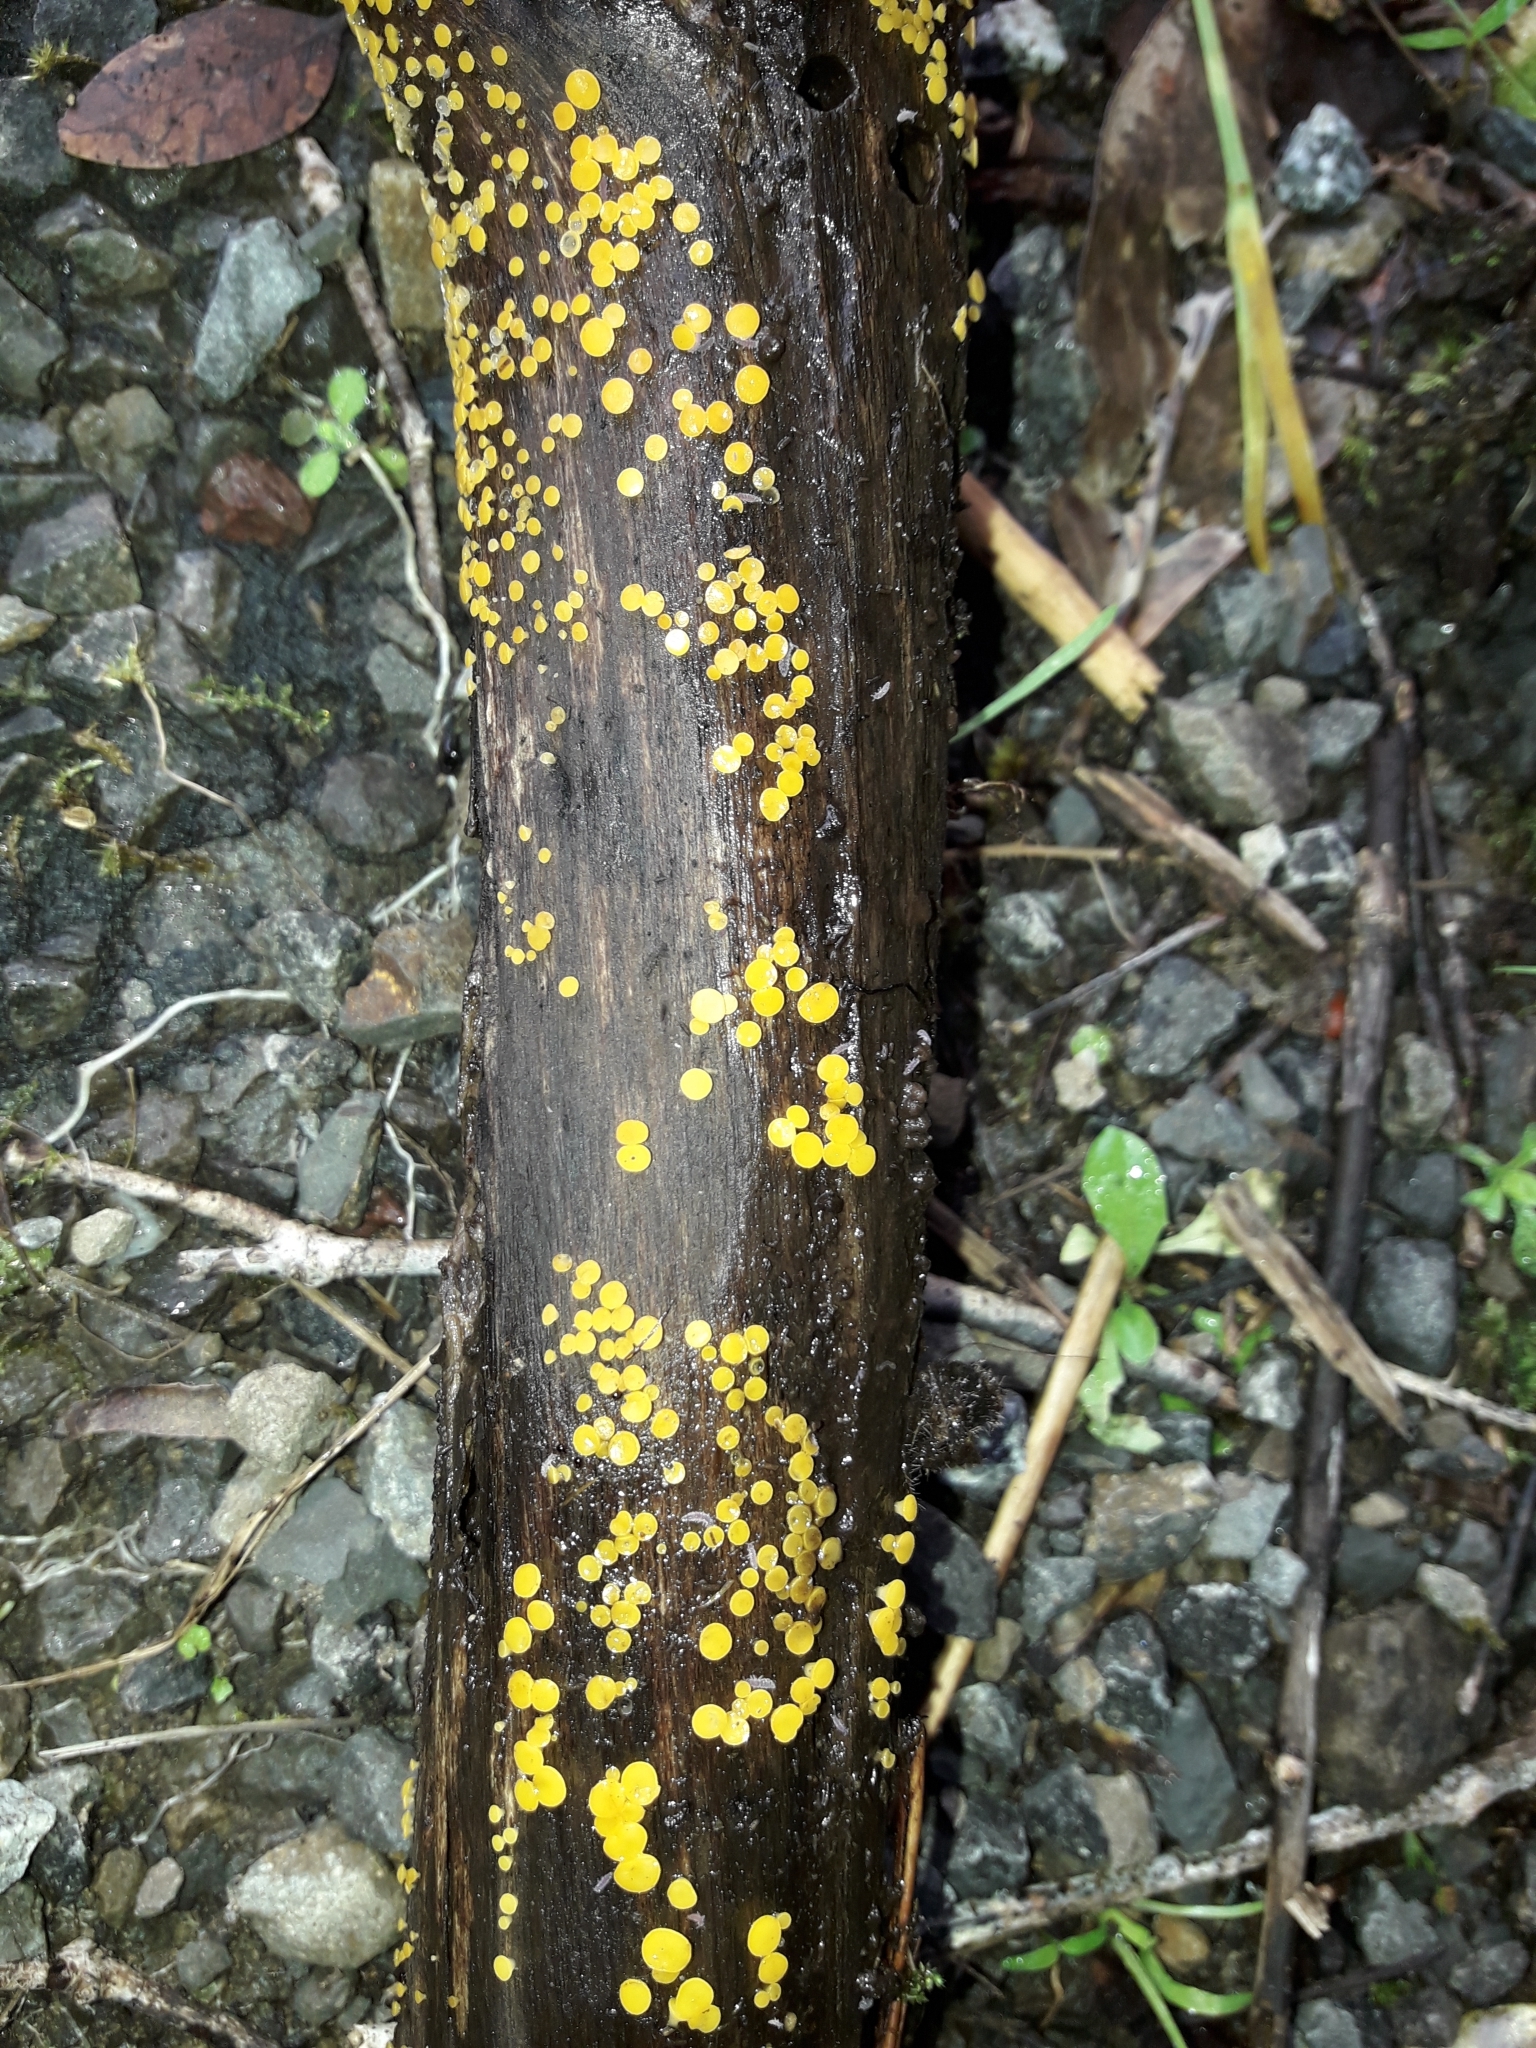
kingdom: Fungi
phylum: Ascomycota
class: Leotiomycetes
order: Helotiales
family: Pezizellaceae
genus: Calycina
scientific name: Calycina citrina
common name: Yellow fairy cups
